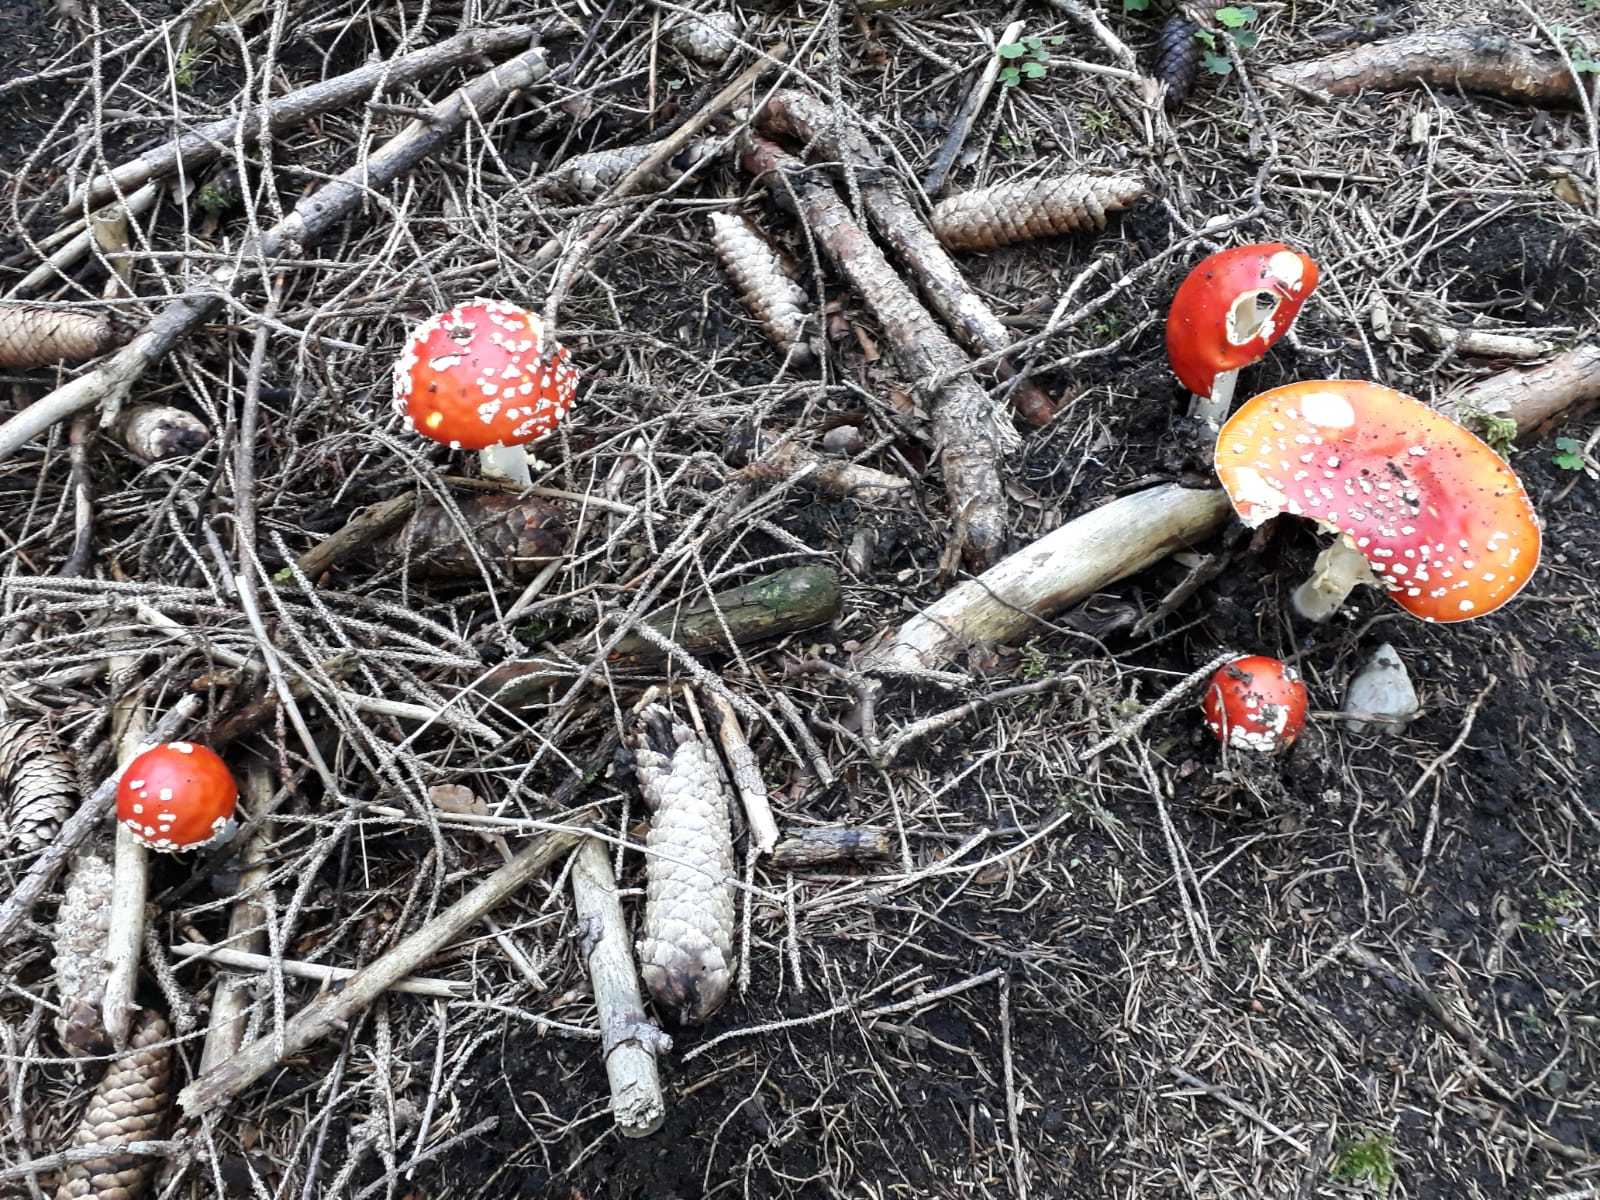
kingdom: Fungi
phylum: Basidiomycota
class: Agaricomycetes
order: Agaricales
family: Amanitaceae
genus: Amanita
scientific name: Amanita muscaria
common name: Fly agaric
